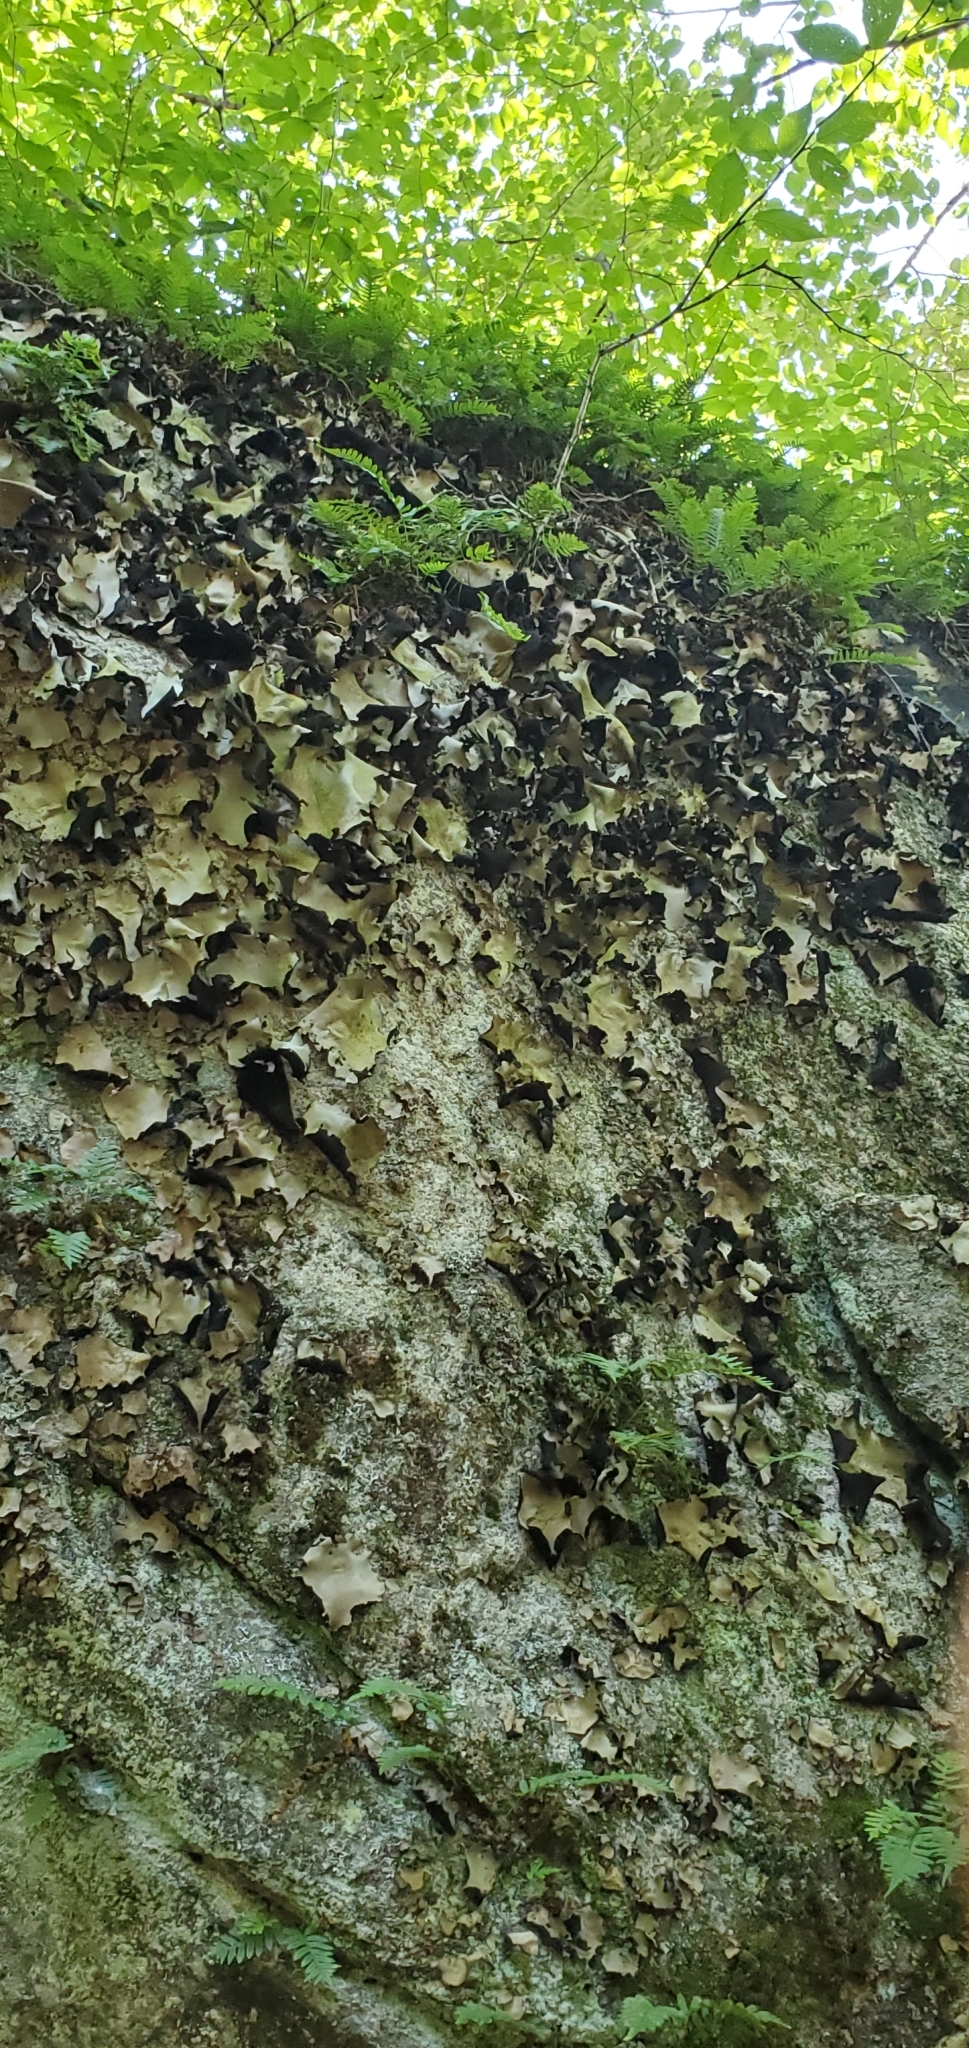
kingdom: Fungi
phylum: Ascomycota
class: Lecanoromycetes
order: Umbilicariales
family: Umbilicariaceae
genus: Umbilicaria
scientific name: Umbilicaria mammulata
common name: Smooth rock tripe
